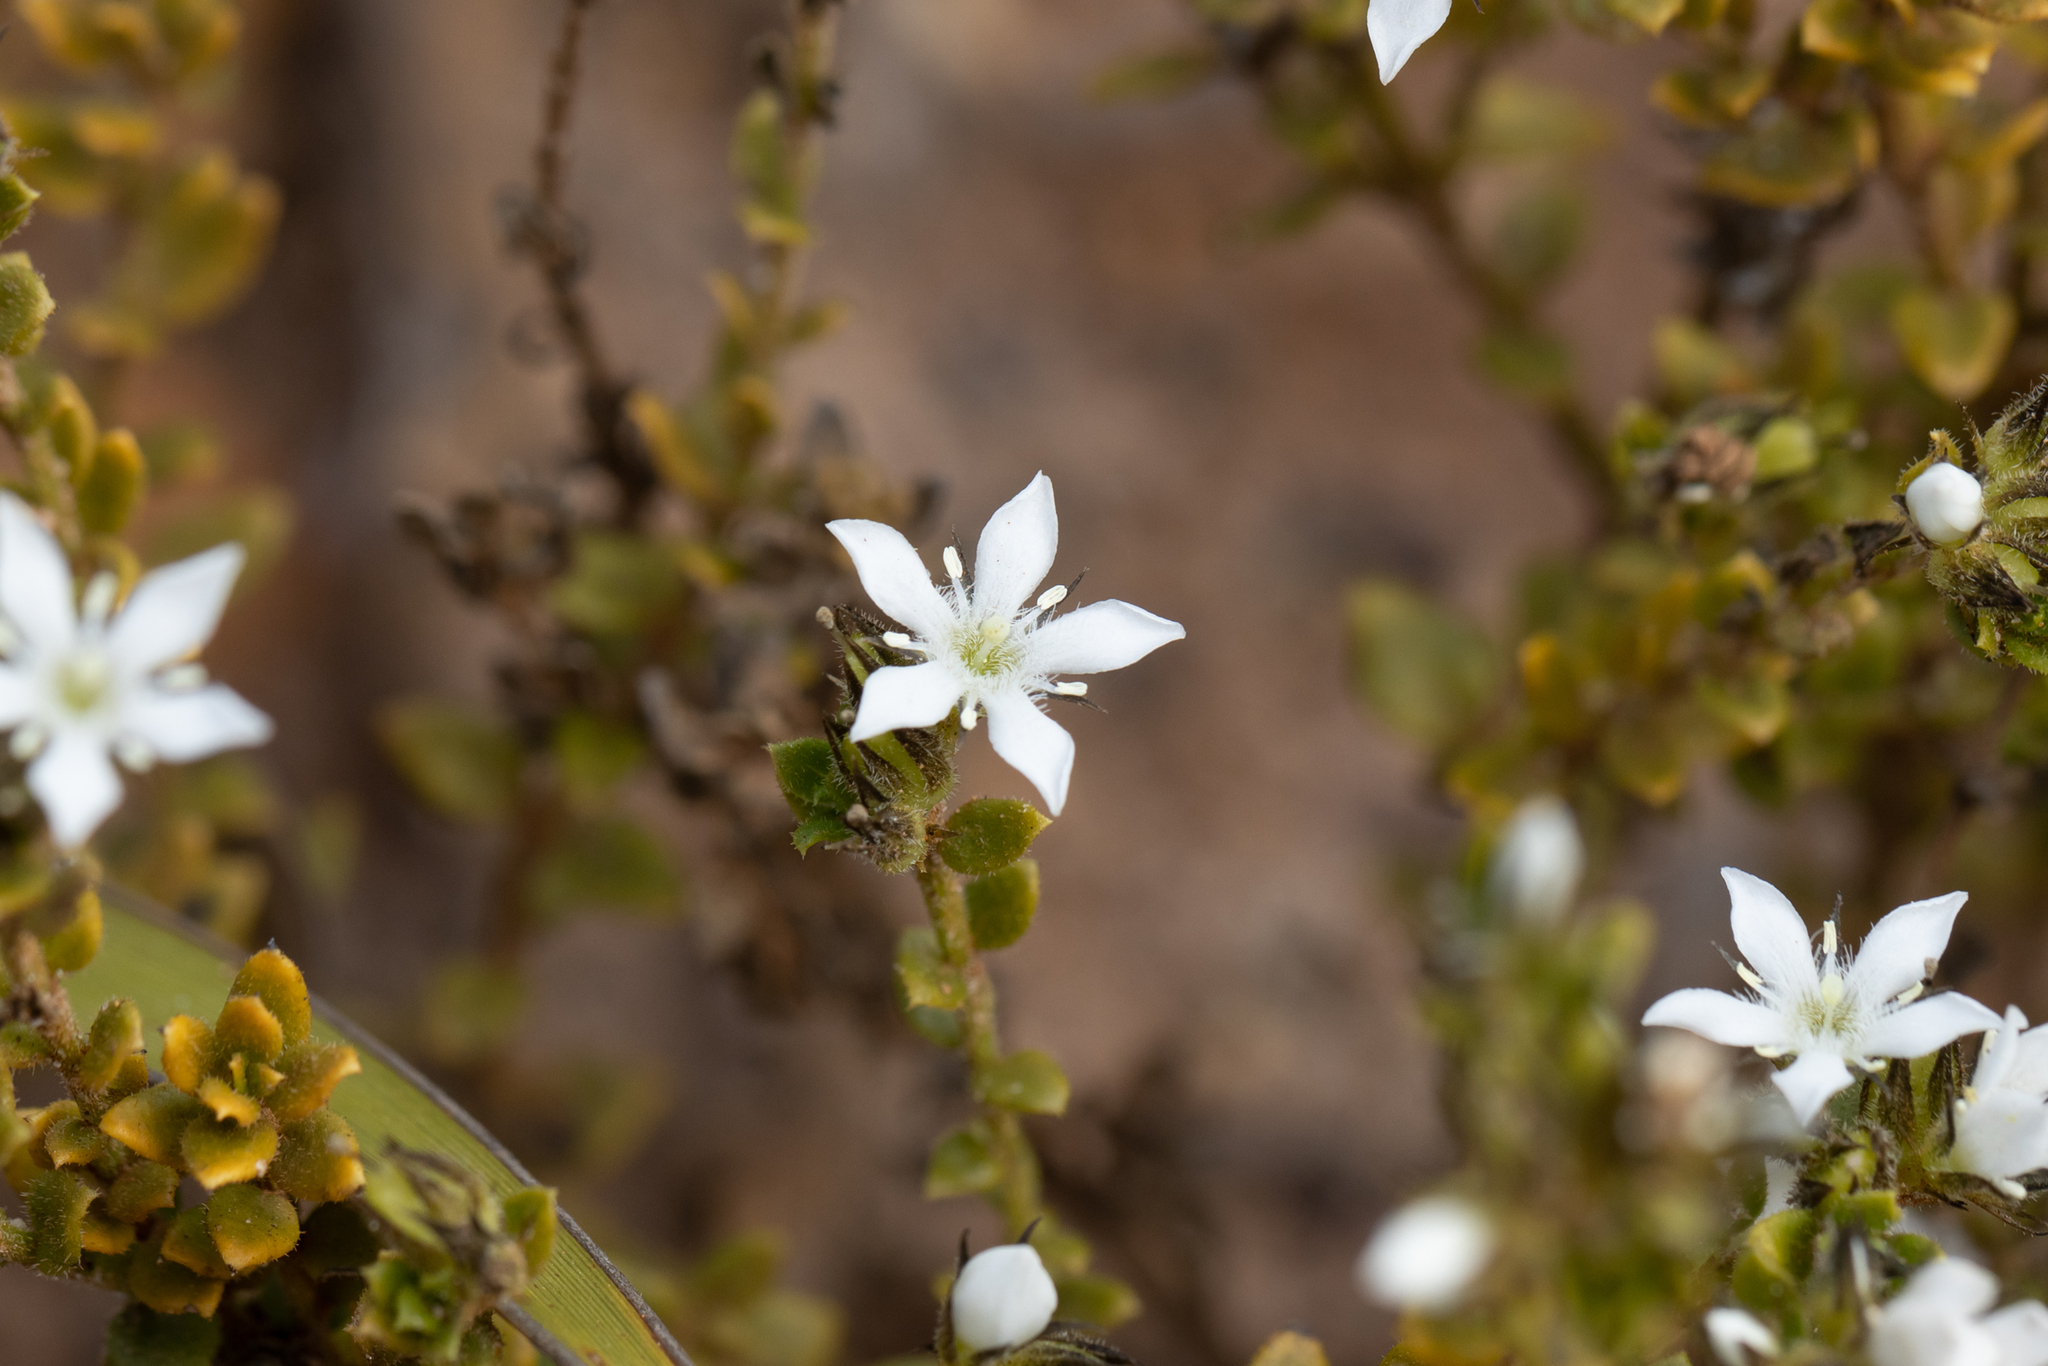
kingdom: Plantae
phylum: Tracheophyta
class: Magnoliopsida
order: Gentianales
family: Loganiaceae
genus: Orianthera
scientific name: Orianthera serpyllifolia
